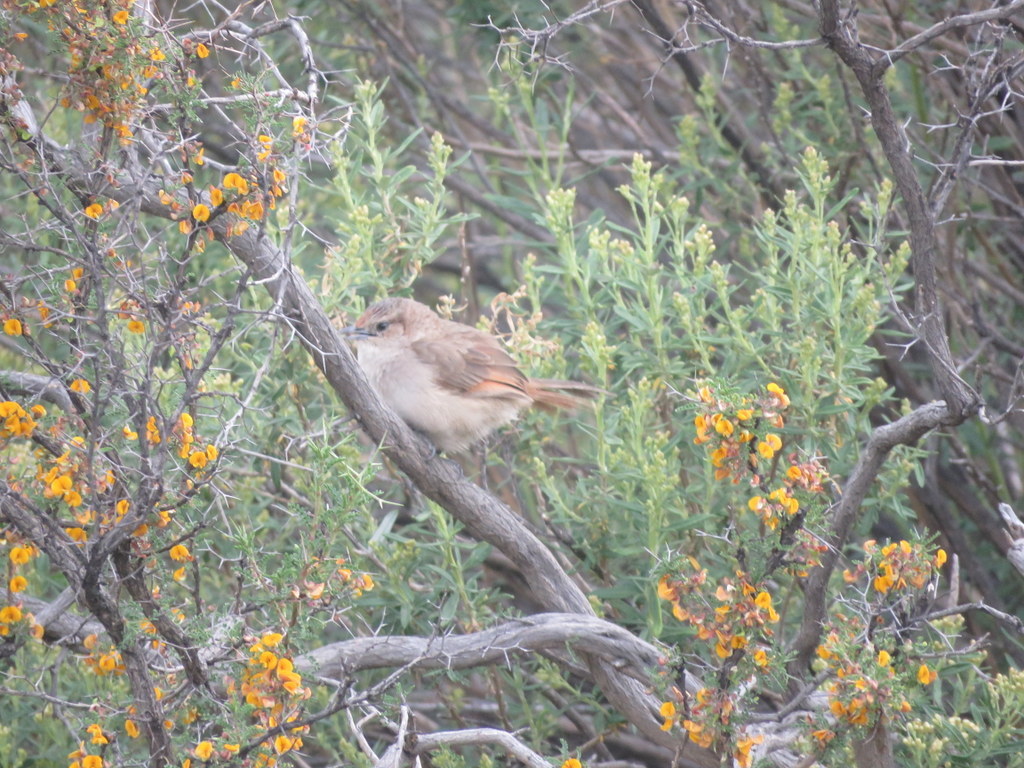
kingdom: Animalia
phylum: Chordata
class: Aves
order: Passeriformes
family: Furnariidae
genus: Phacellodomus
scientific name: Phacellodomus striaticeps
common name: Streak-fronted thornbird
